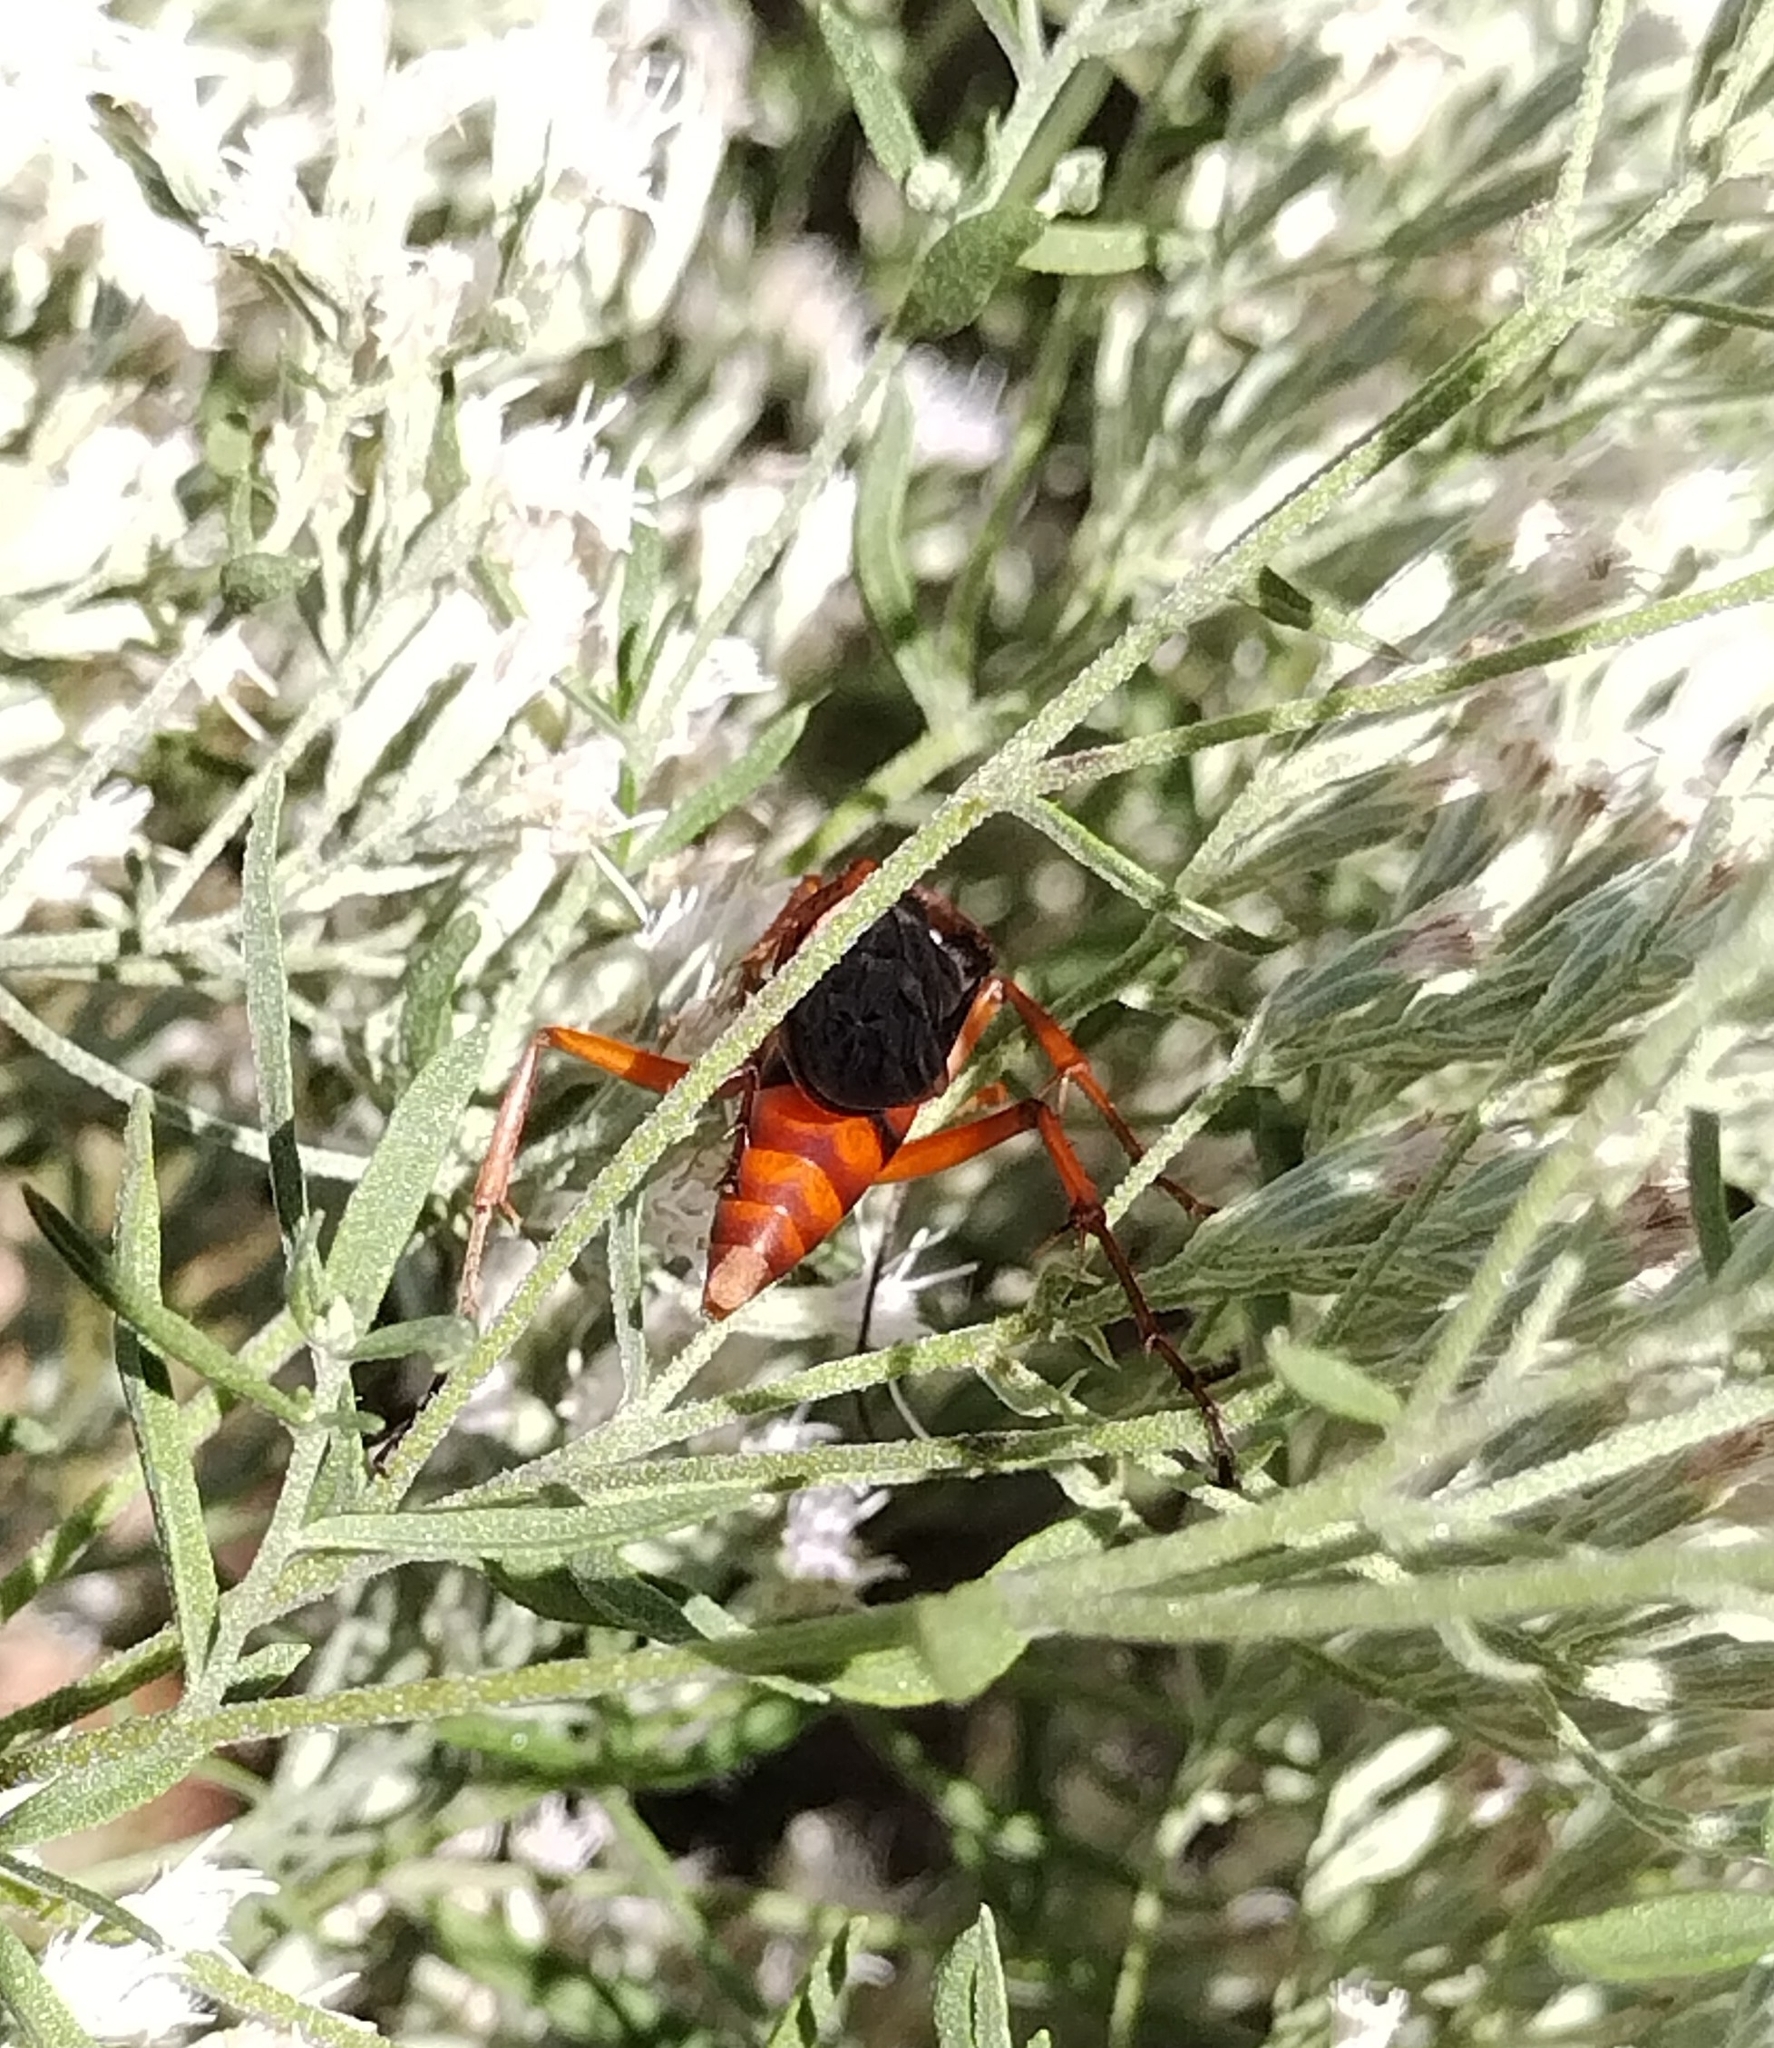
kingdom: Animalia
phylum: Arthropoda
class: Insecta
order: Hymenoptera
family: Pompilidae
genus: Tachypompilus
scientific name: Tachypompilus ferrugineus
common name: Rusty spider wasp
